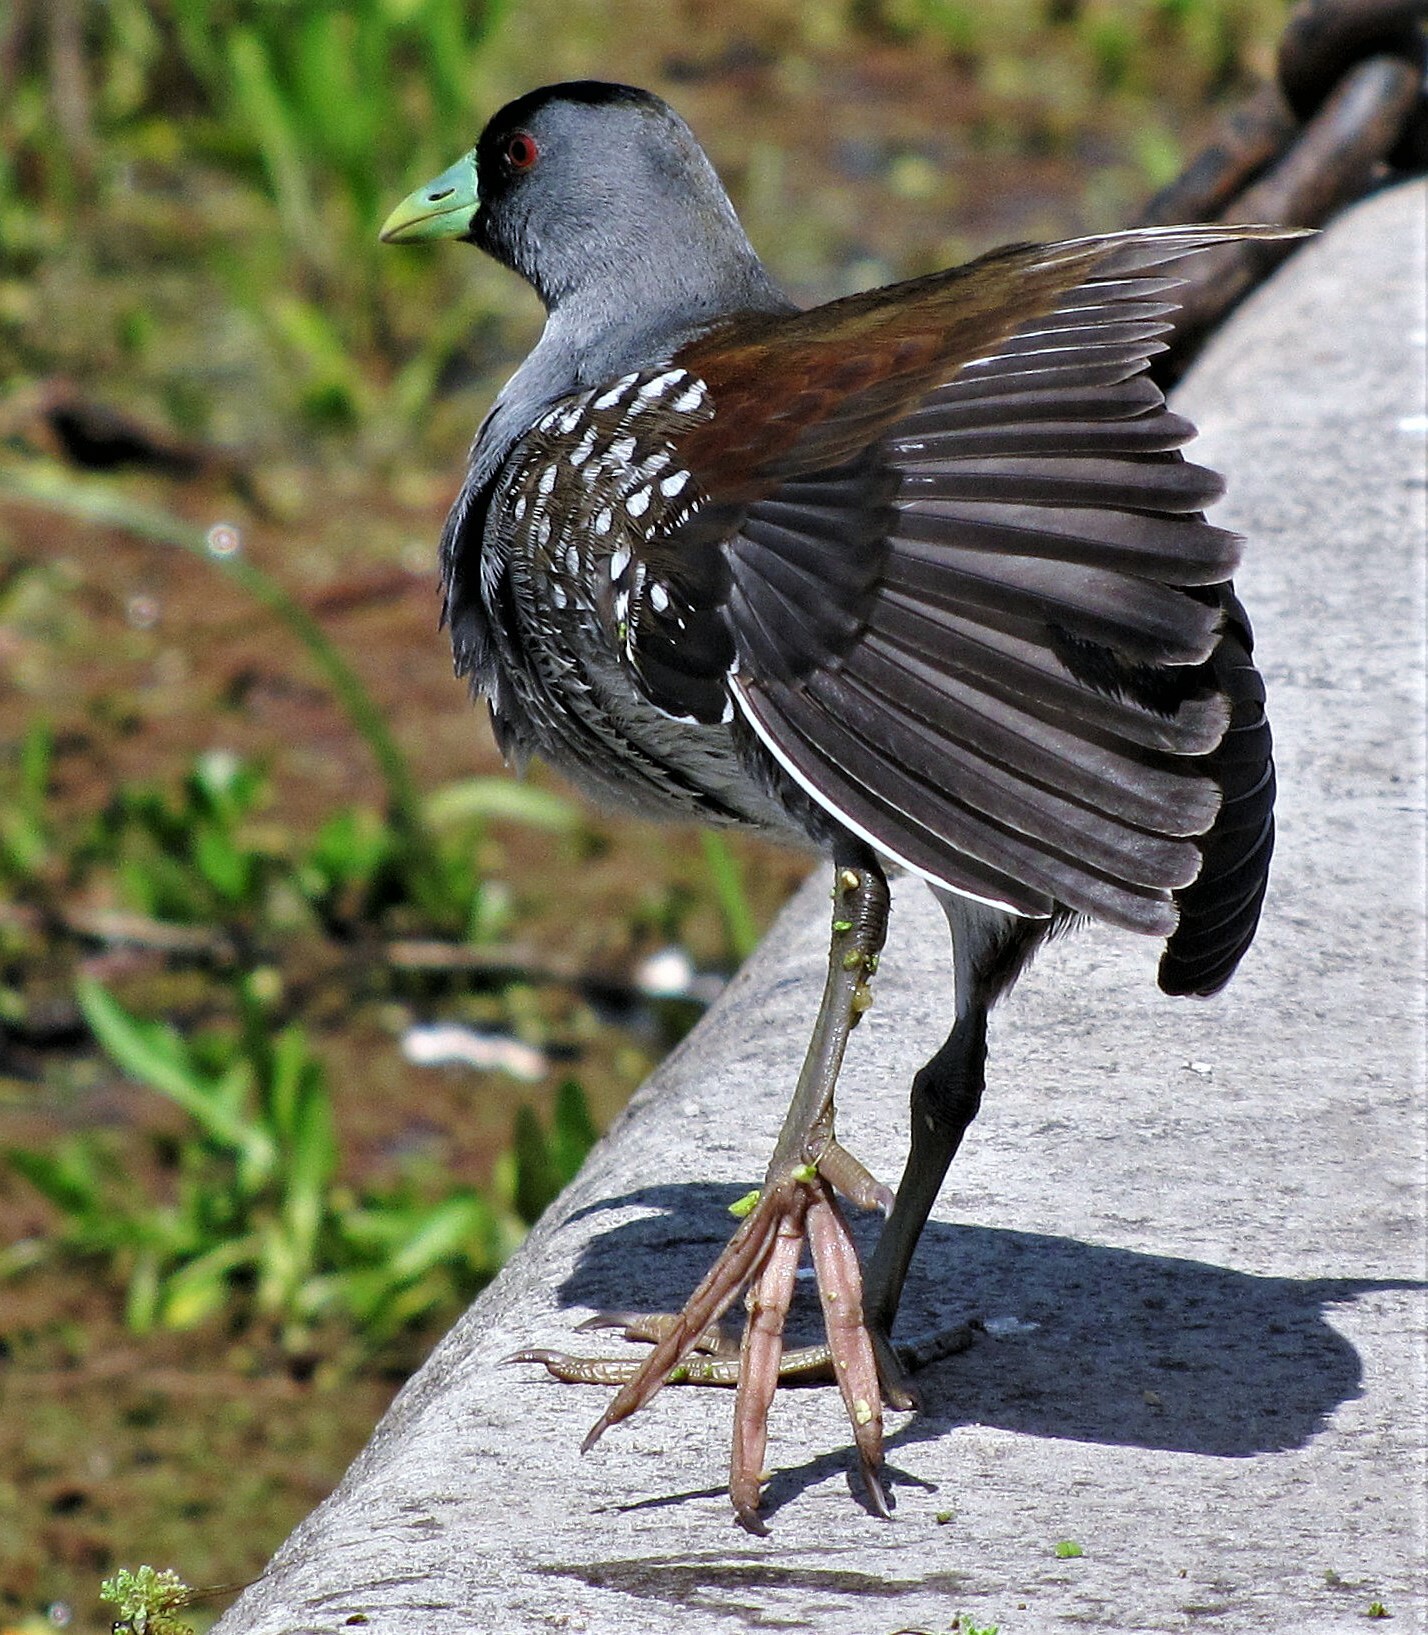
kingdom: Animalia
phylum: Chordata
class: Aves
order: Gruiformes
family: Rallidae
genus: Gallinula
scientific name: Gallinula melanops
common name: Spot-flanked gallinule
